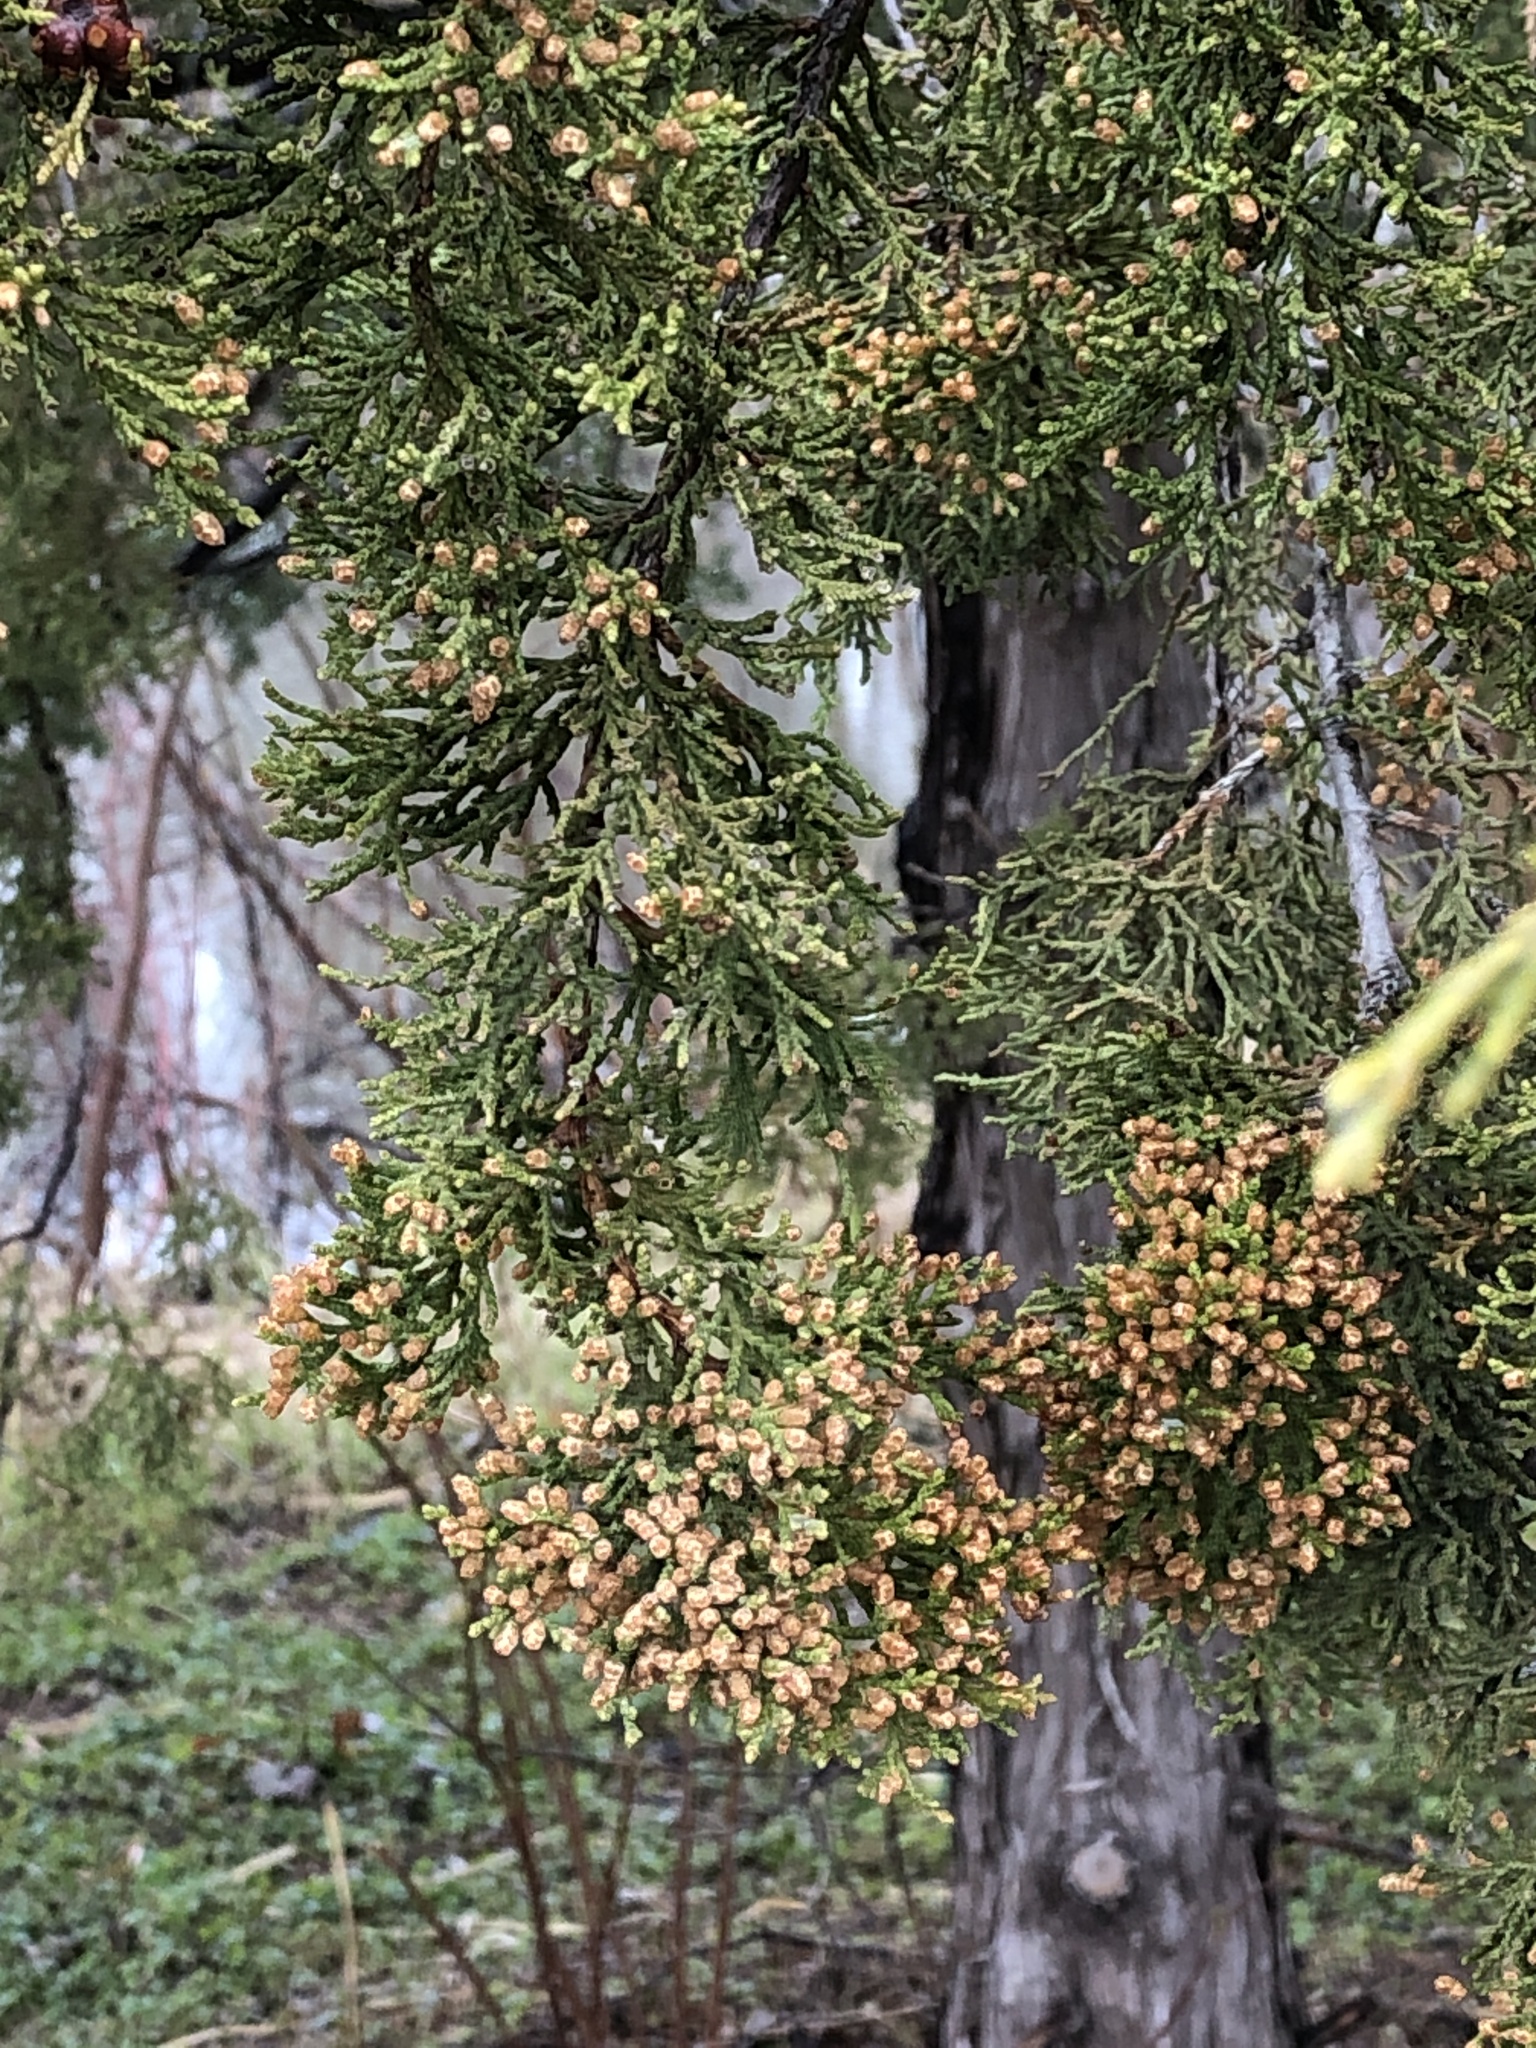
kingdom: Plantae
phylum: Tracheophyta
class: Pinopsida
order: Pinales
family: Cupressaceae
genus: Juniperus
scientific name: Juniperus virginiana
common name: Red juniper
